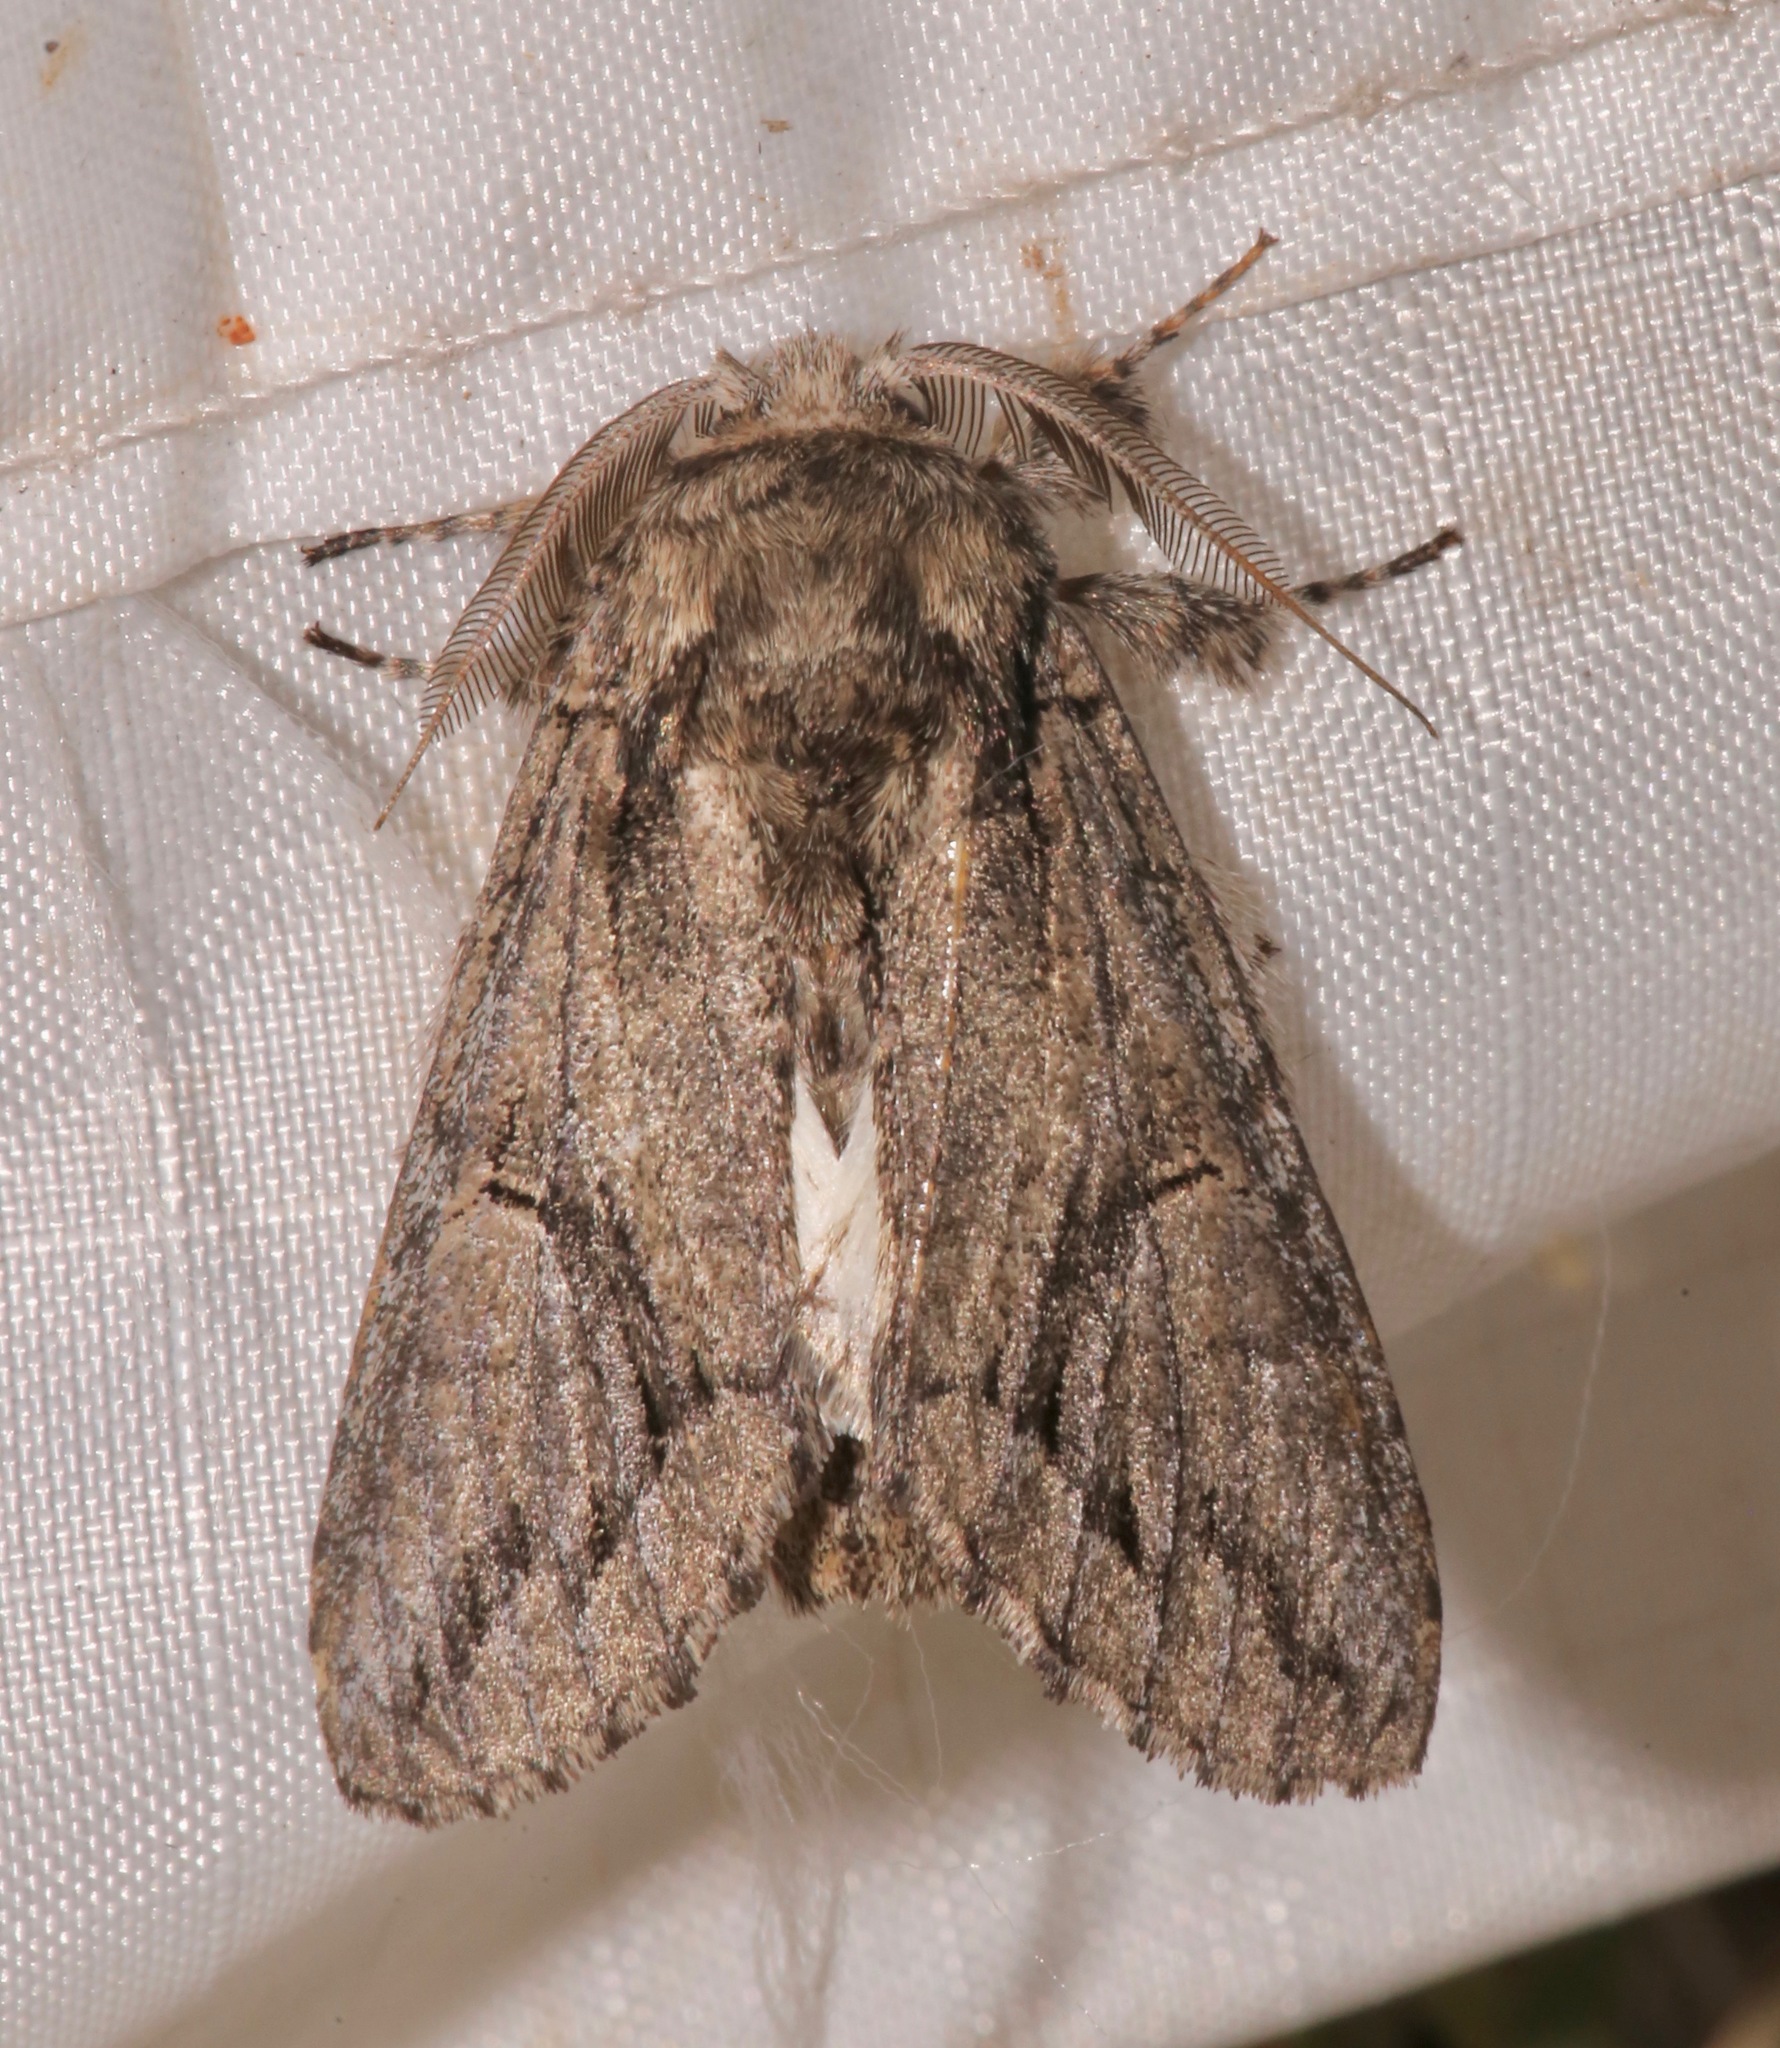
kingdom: Animalia
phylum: Arthropoda
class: Insecta
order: Lepidoptera
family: Notodontidae
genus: Heterocampa
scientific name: Heterocampa averna
